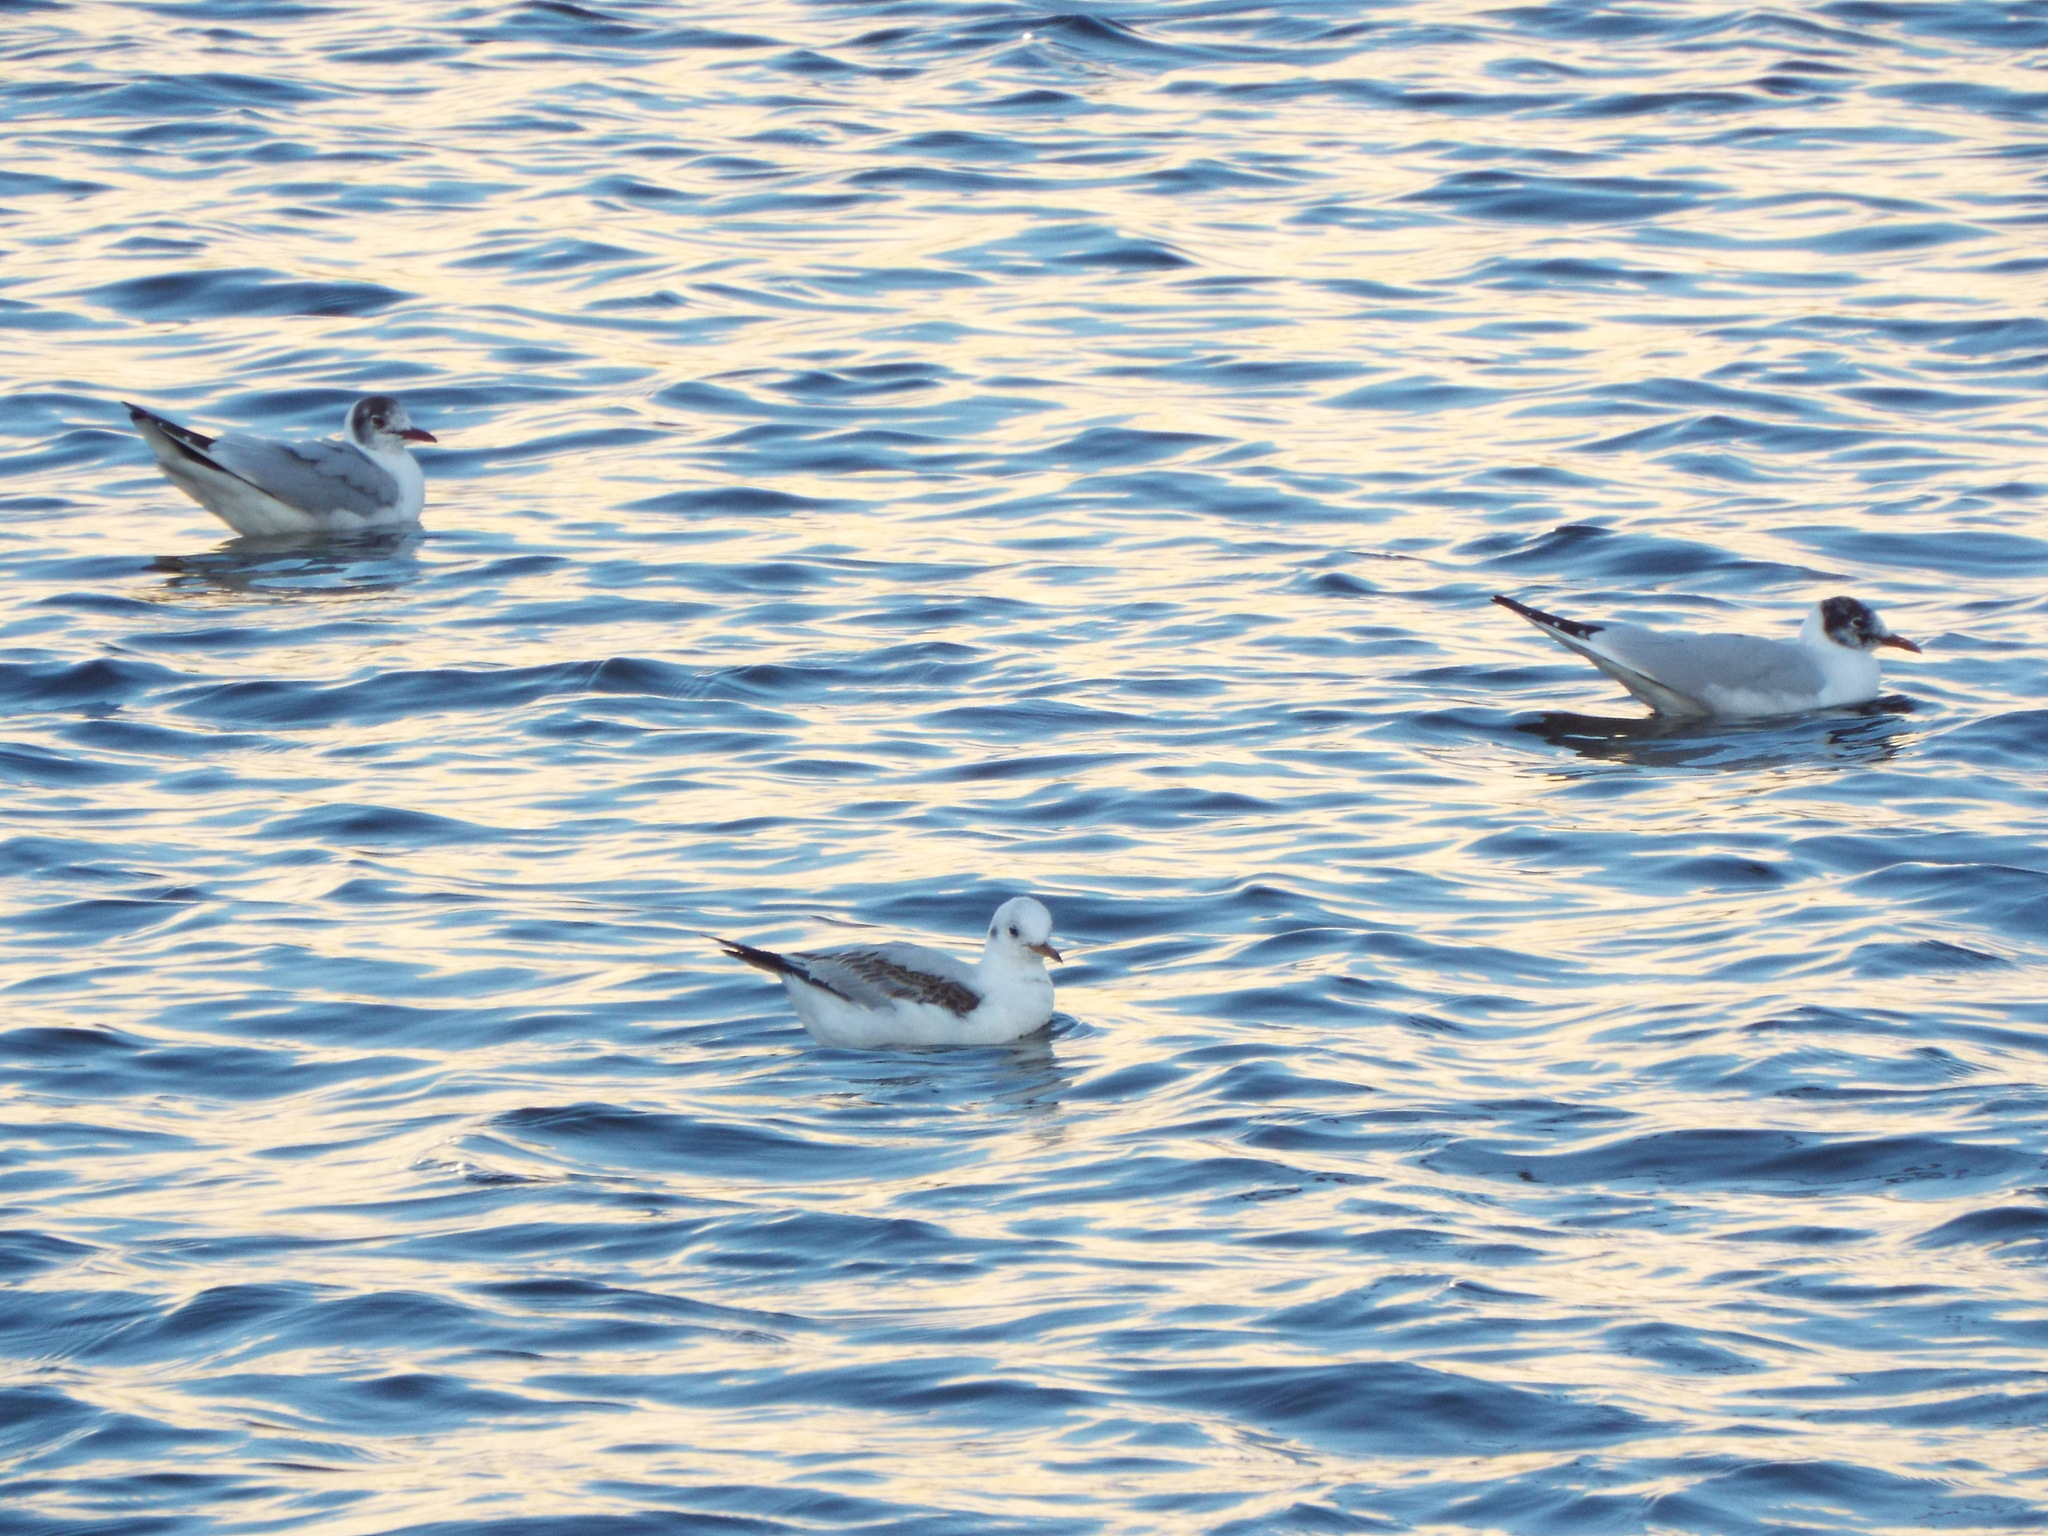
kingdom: Animalia
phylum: Chordata
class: Aves
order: Charadriiformes
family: Laridae
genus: Chroicocephalus
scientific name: Chroicocephalus ridibundus
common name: Black-headed gull
